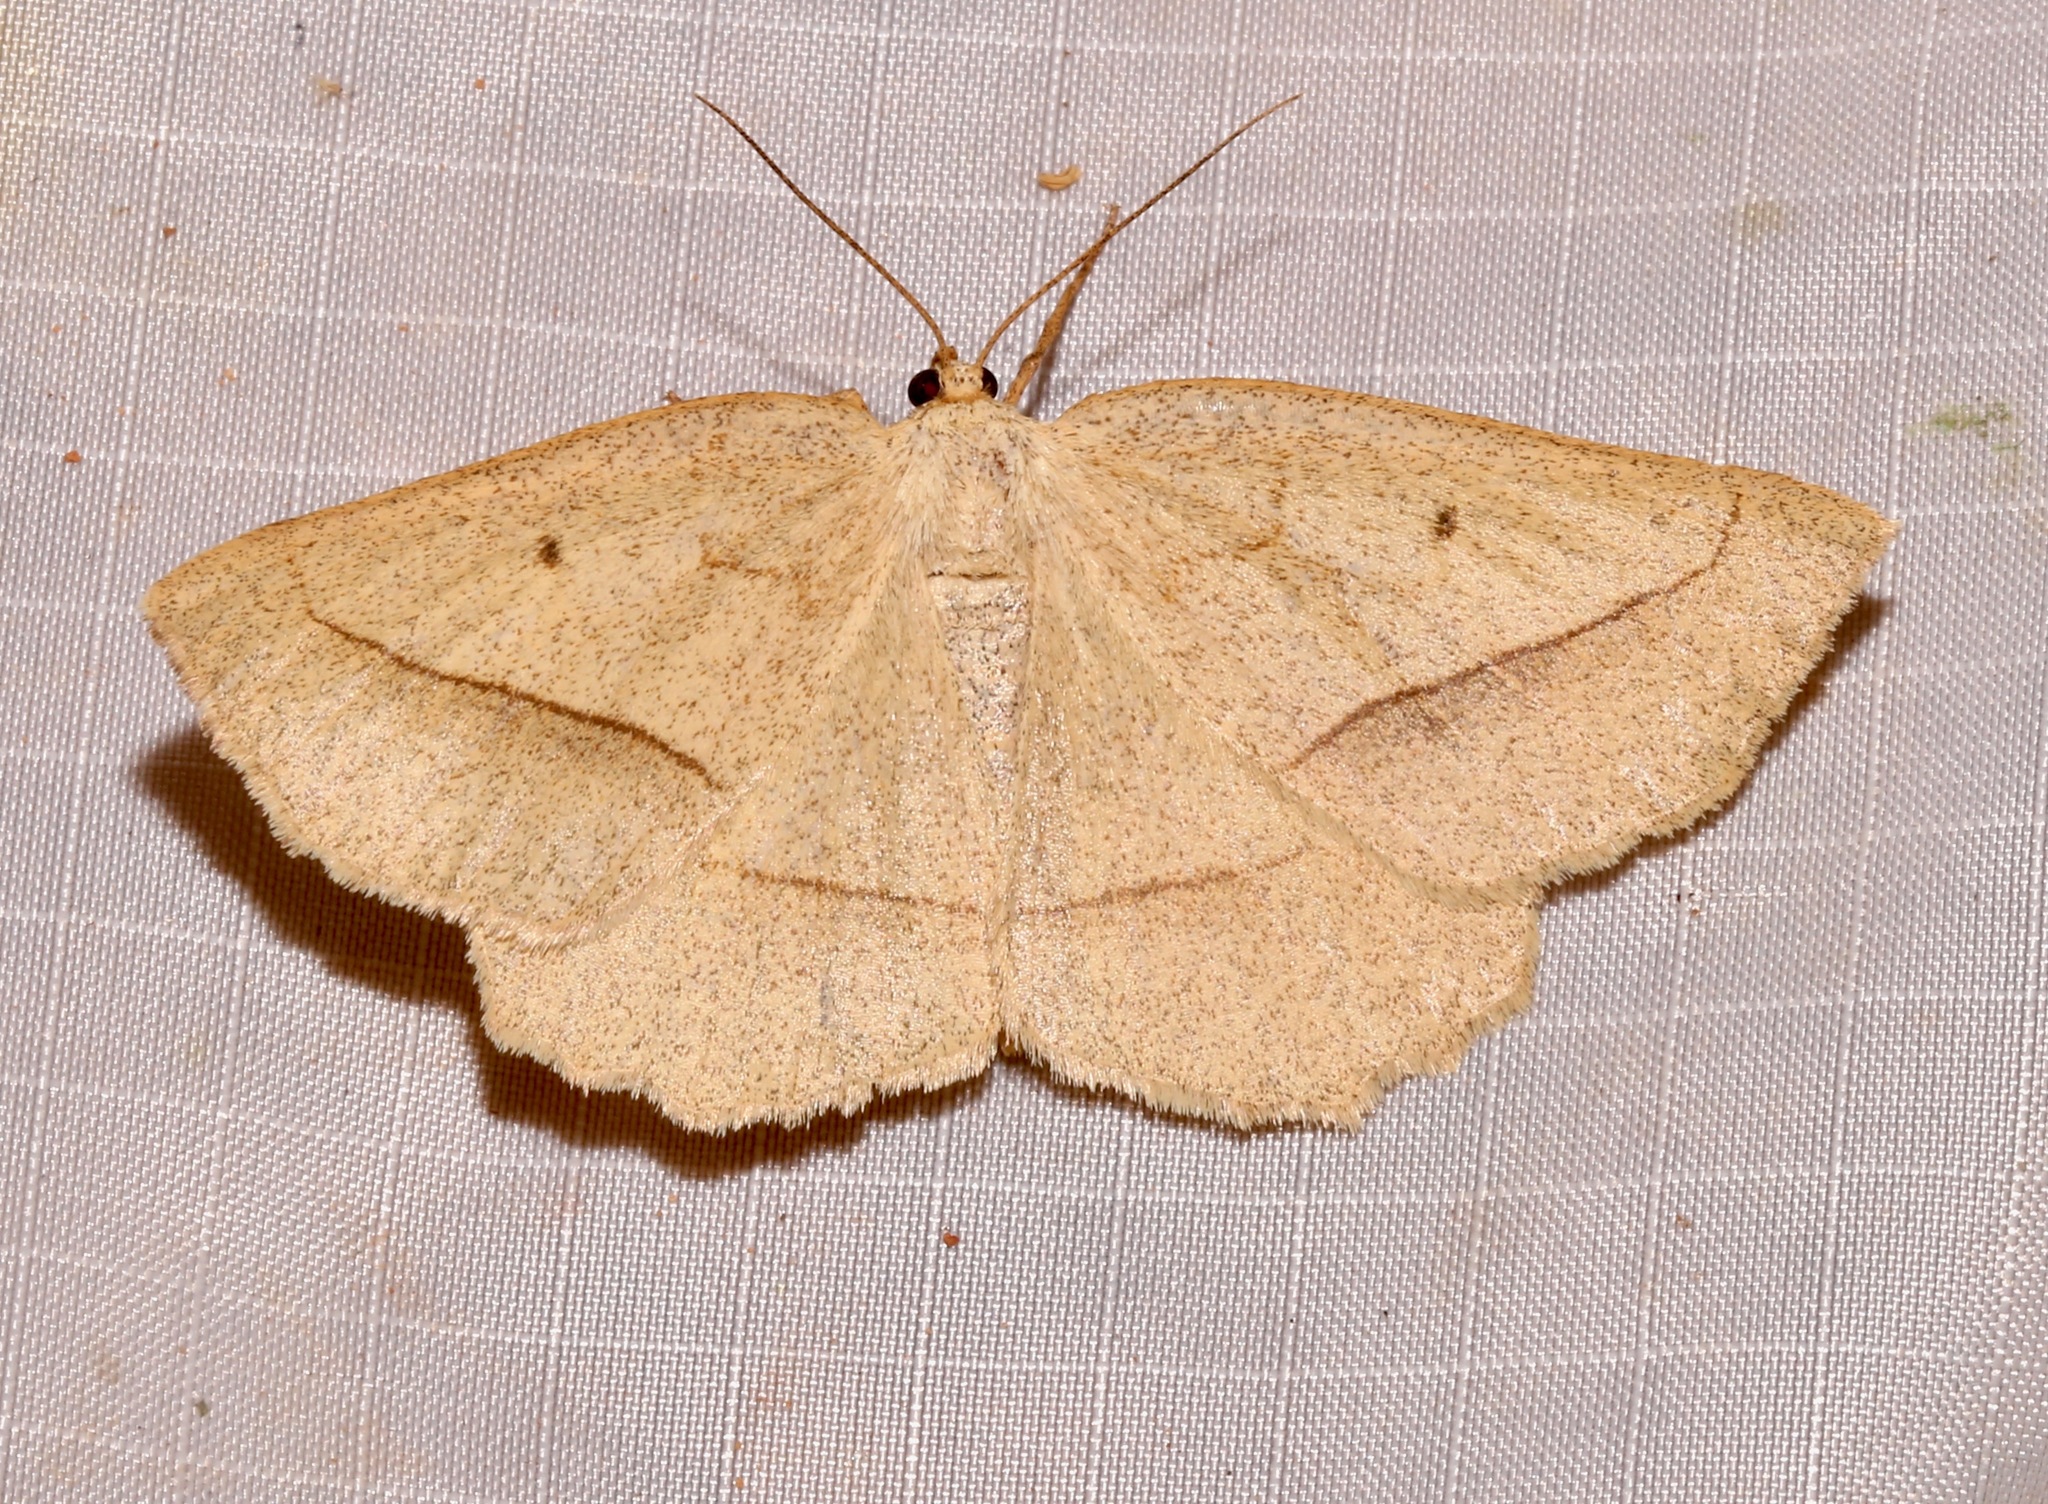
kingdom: Animalia
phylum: Arthropoda
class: Insecta
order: Lepidoptera
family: Geometridae
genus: Euchlaena
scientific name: Euchlaena irraria
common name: Least-marked euchlaena
